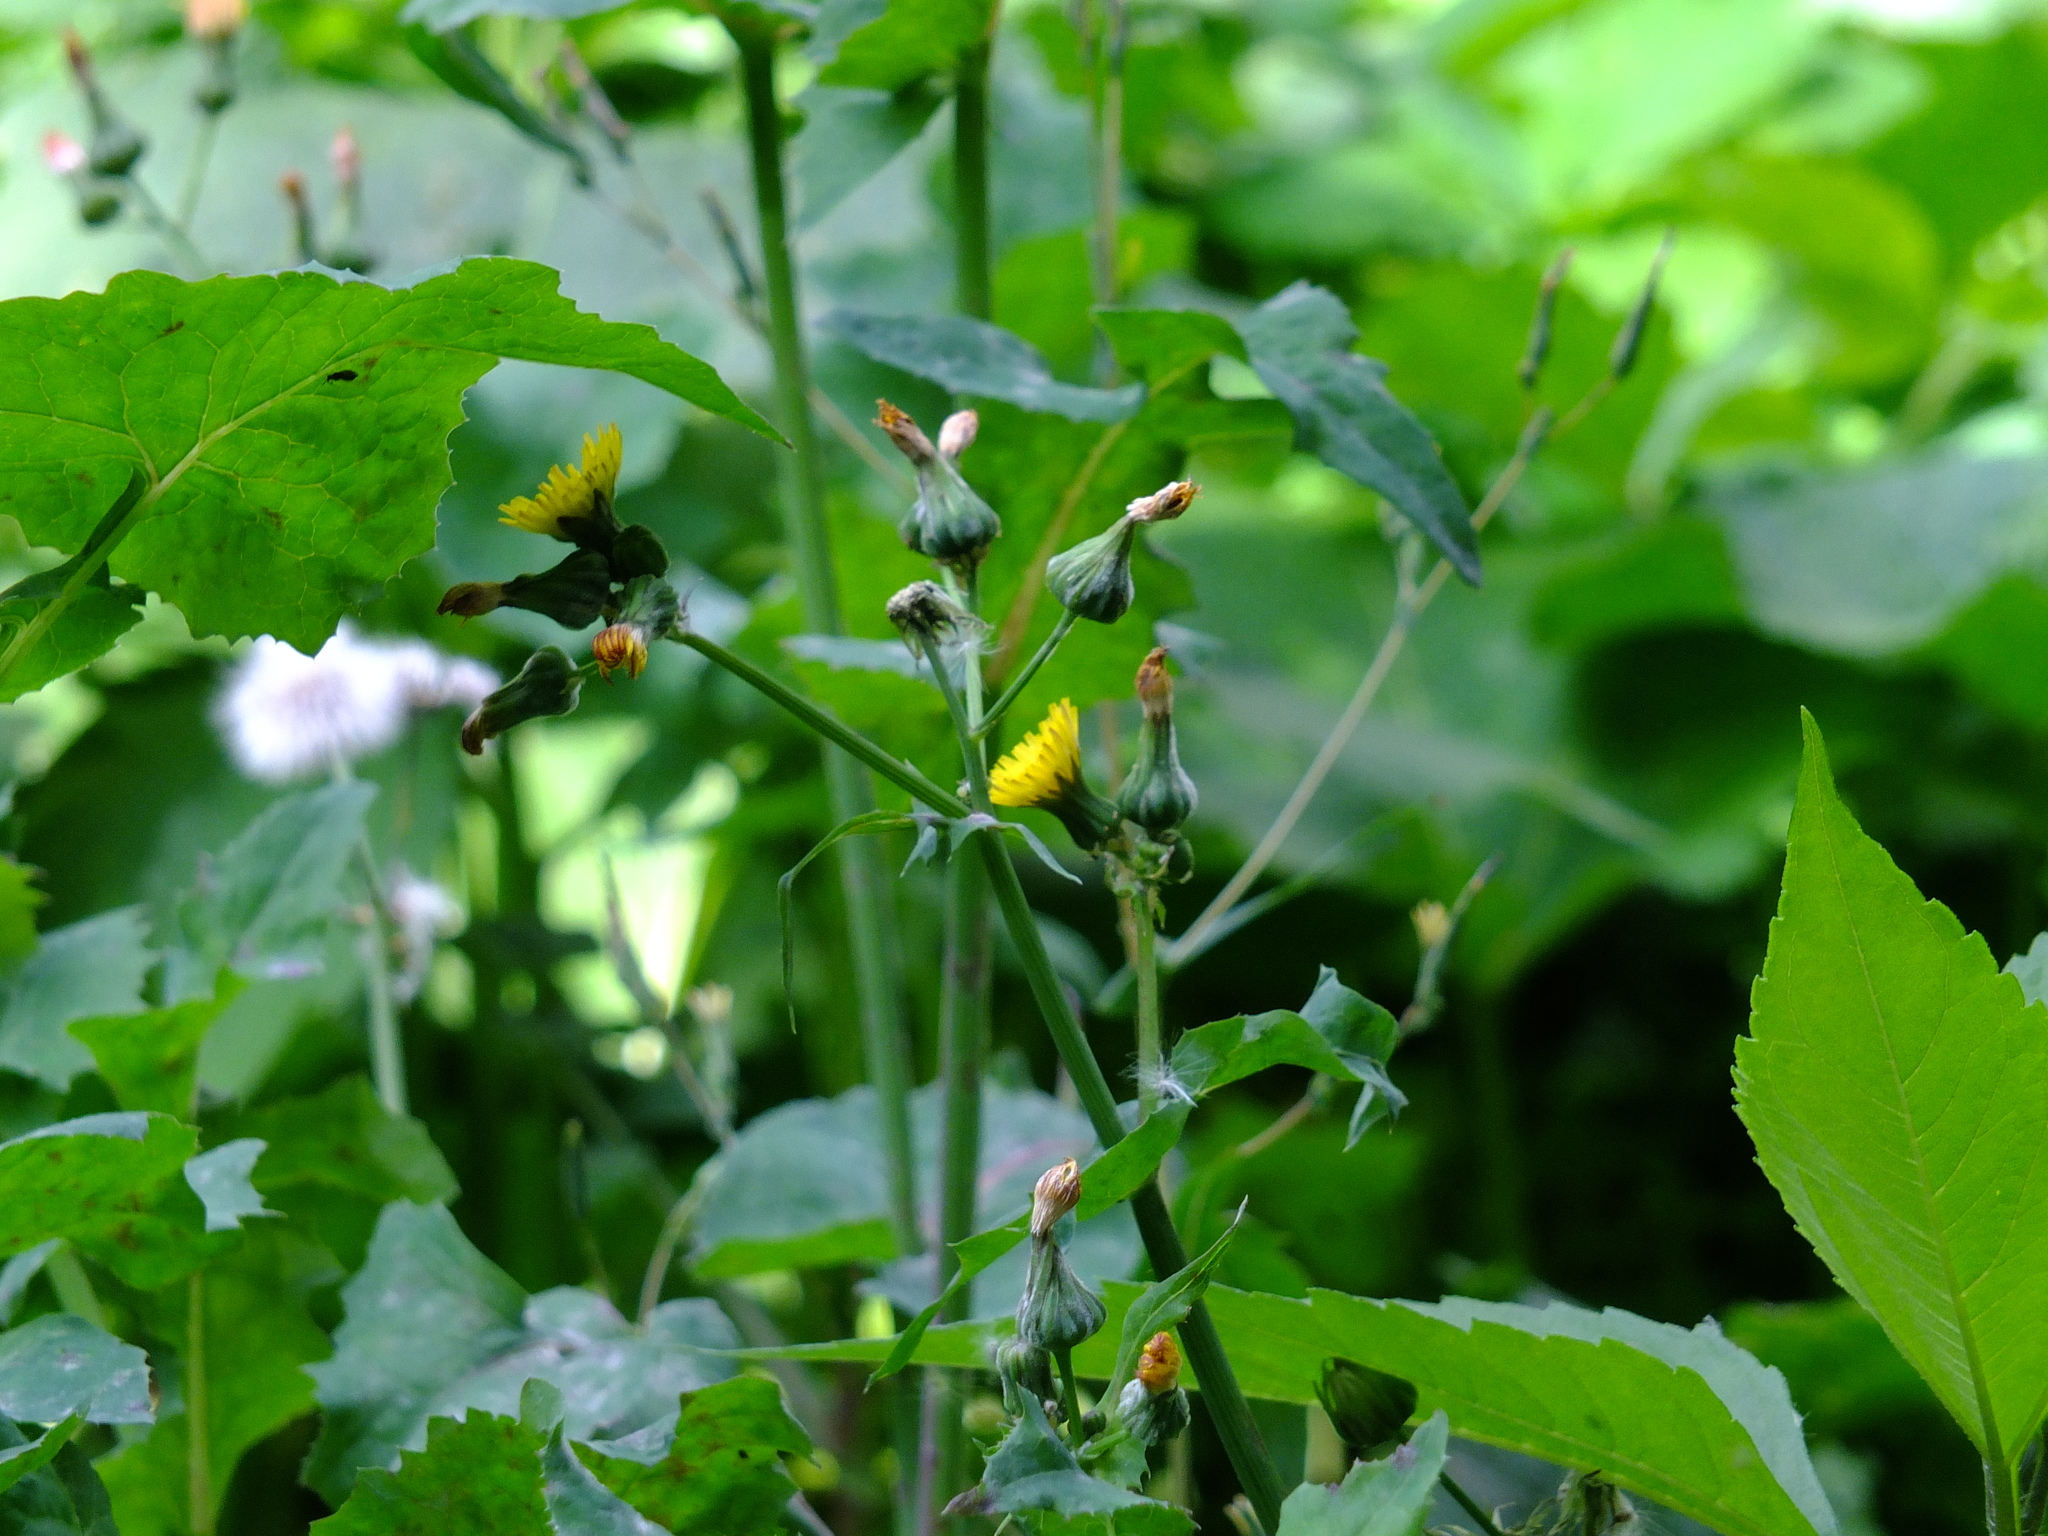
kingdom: Plantae
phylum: Tracheophyta
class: Magnoliopsida
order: Asterales
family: Asteraceae
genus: Sonchus
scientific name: Sonchus oleraceus
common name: Common sowthistle
